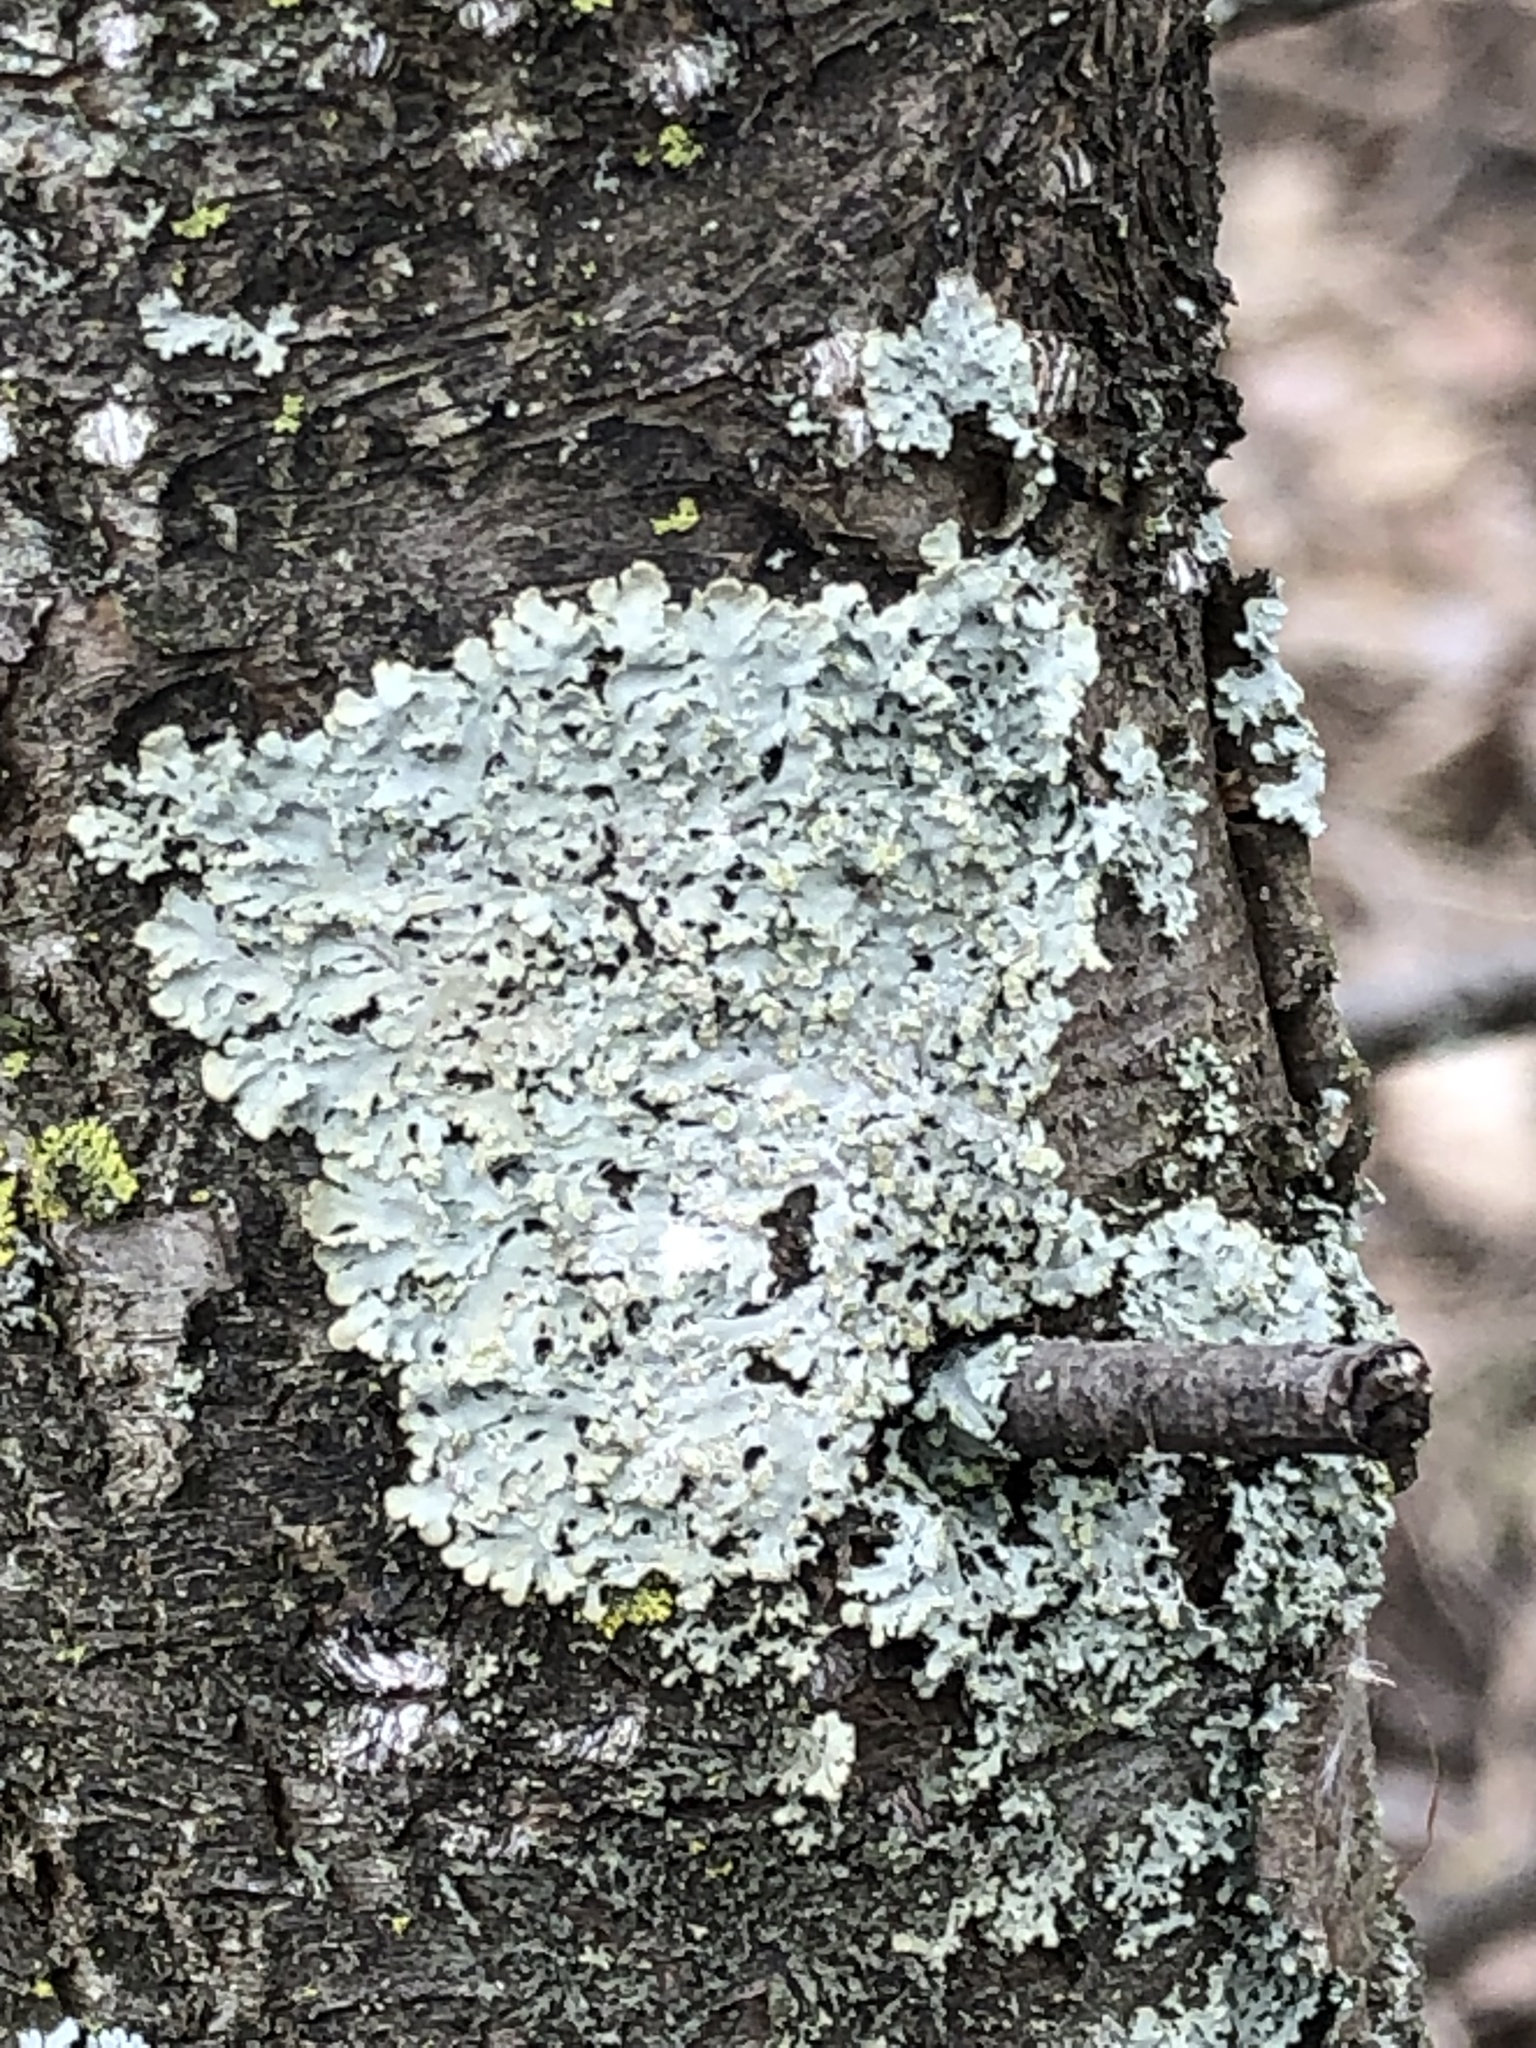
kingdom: Fungi
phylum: Ascomycota
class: Lecanoromycetes
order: Caliciales
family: Physciaceae
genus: Physciella
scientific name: Physciella chloantha
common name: Cryptic rosette lichen
